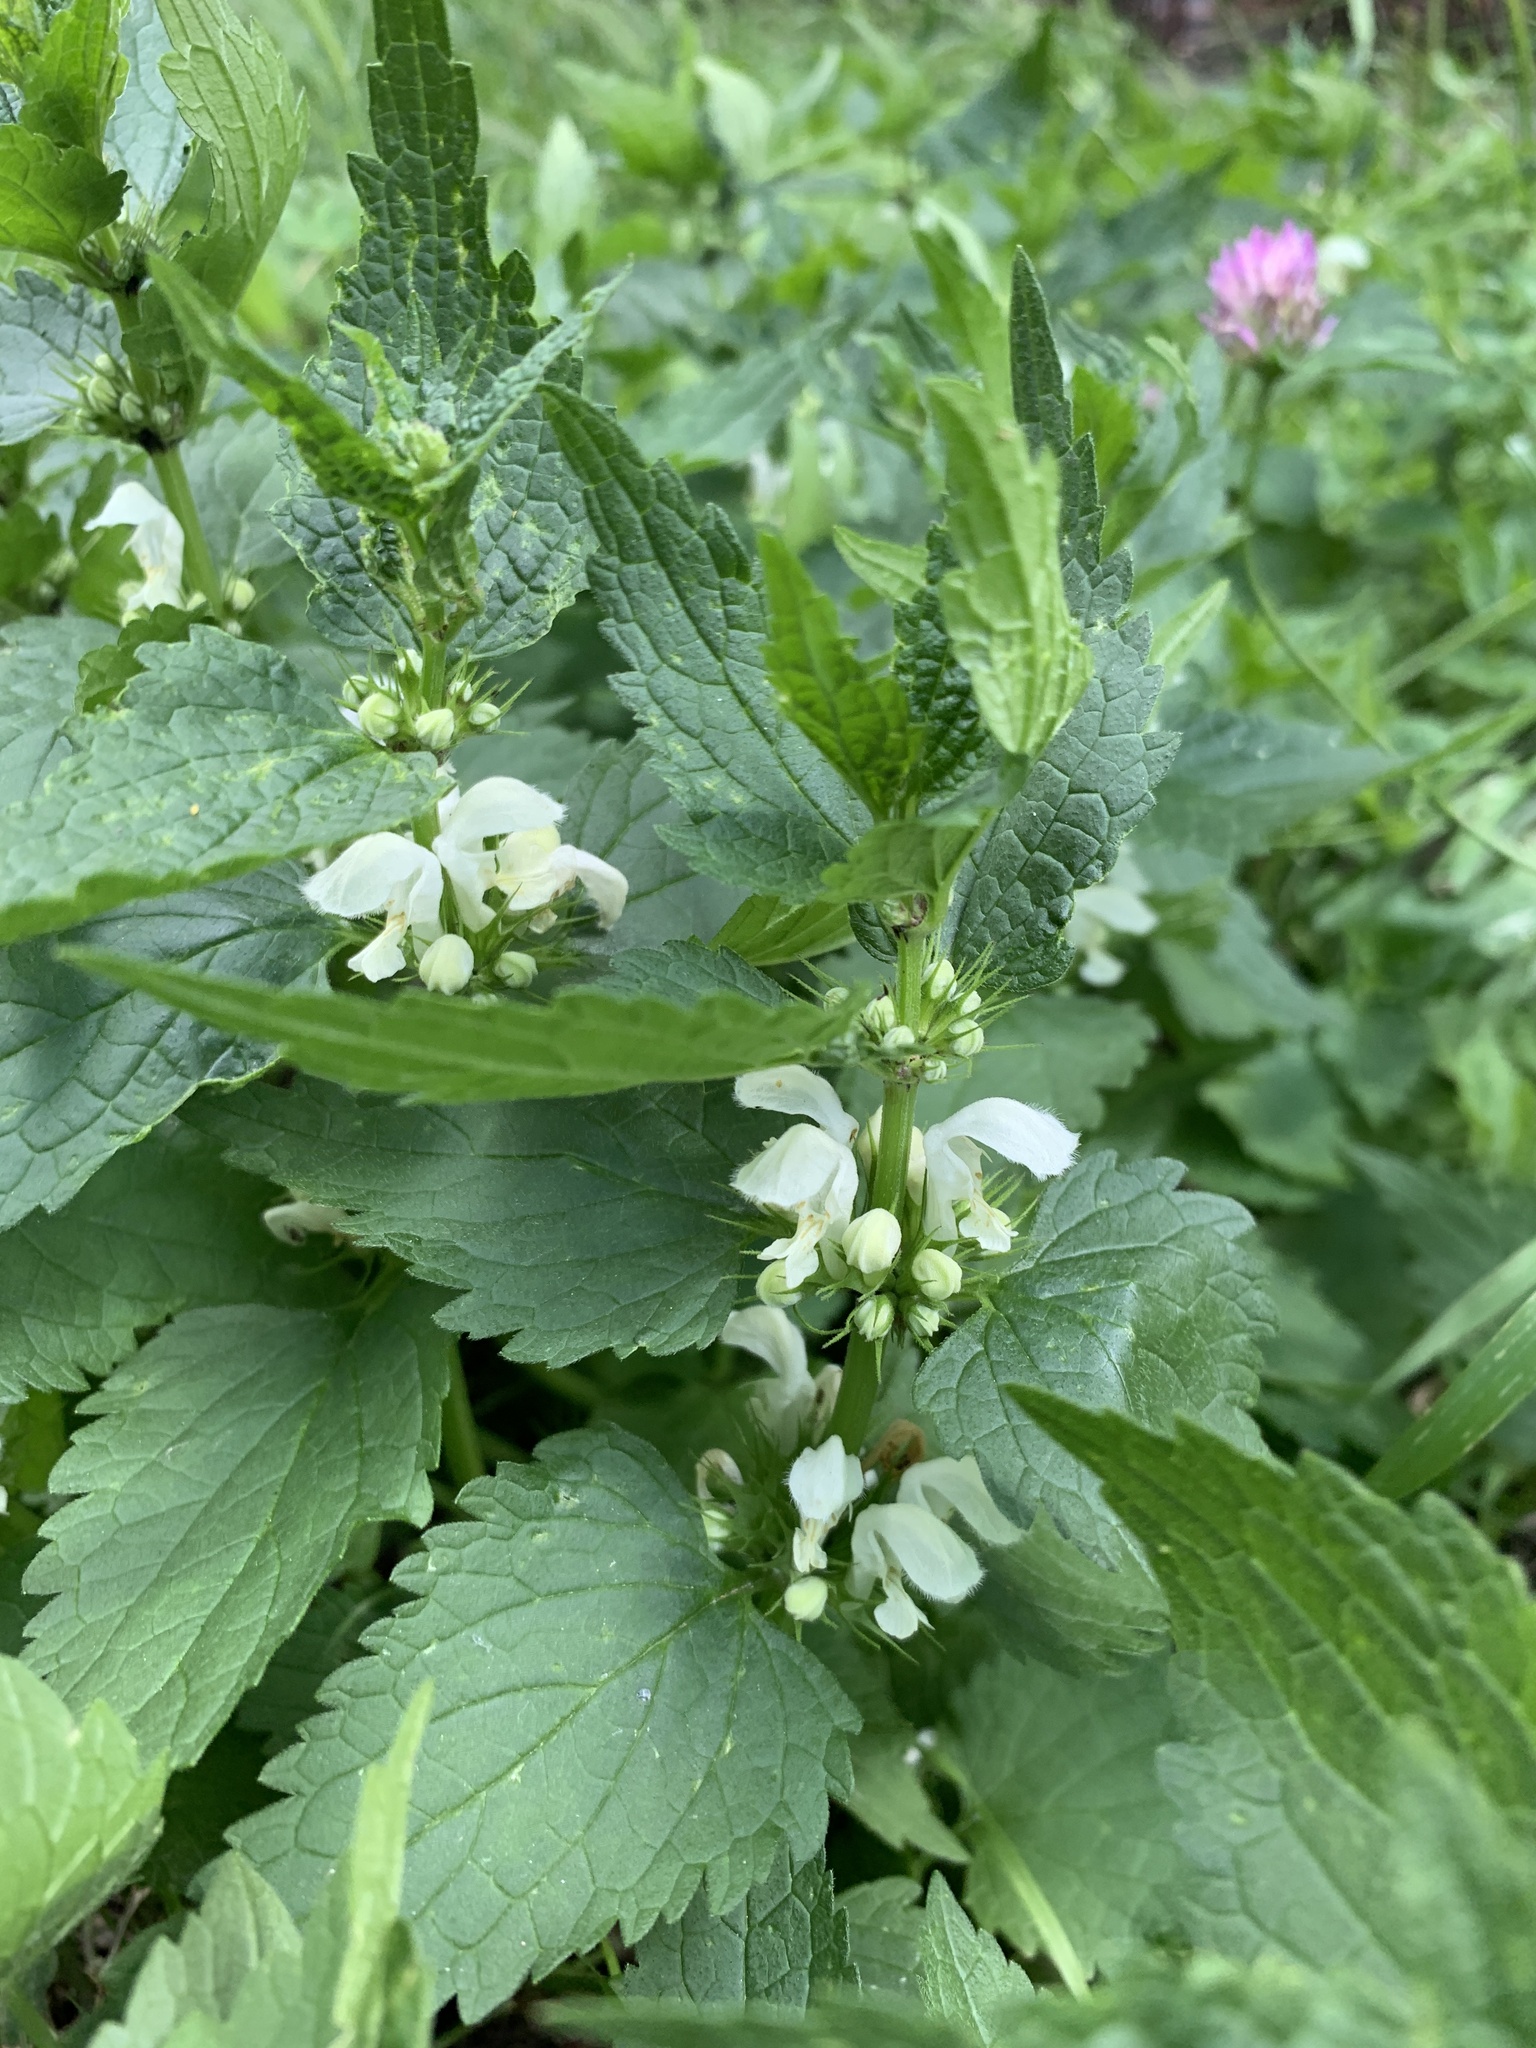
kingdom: Plantae
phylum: Tracheophyta
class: Magnoliopsida
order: Lamiales
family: Lamiaceae
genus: Lamium
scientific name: Lamium album
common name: White dead-nettle
